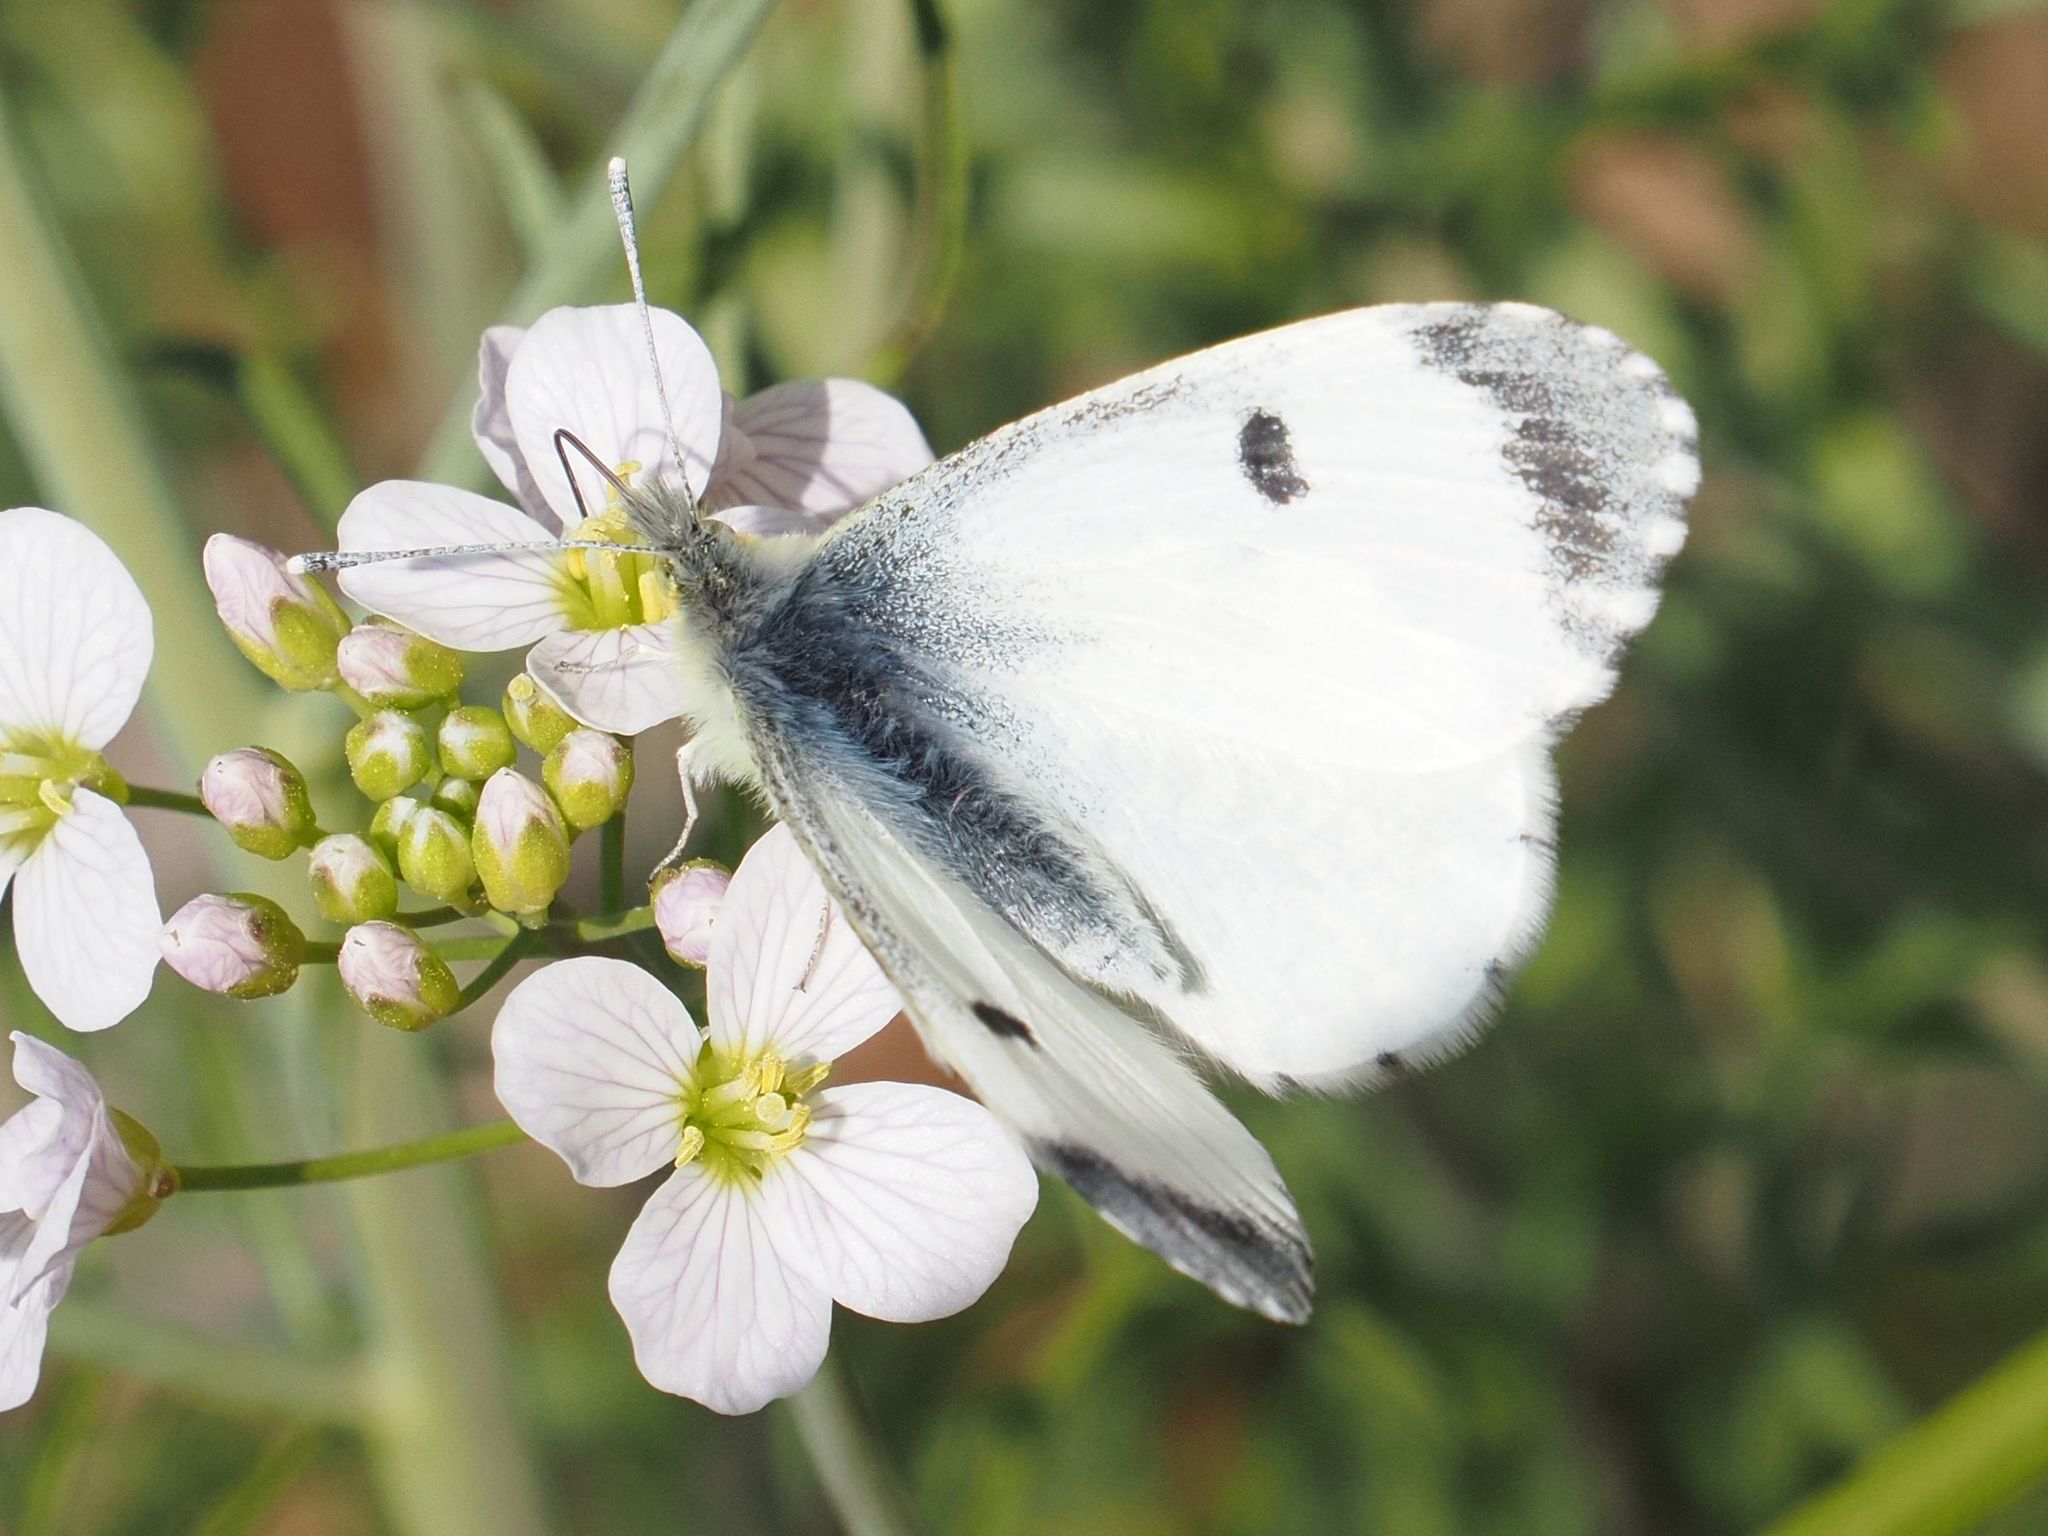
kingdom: Animalia
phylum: Arthropoda
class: Insecta
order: Lepidoptera
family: Pieridae
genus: Anthocharis
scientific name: Anthocharis cardamines
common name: Orange-tip
